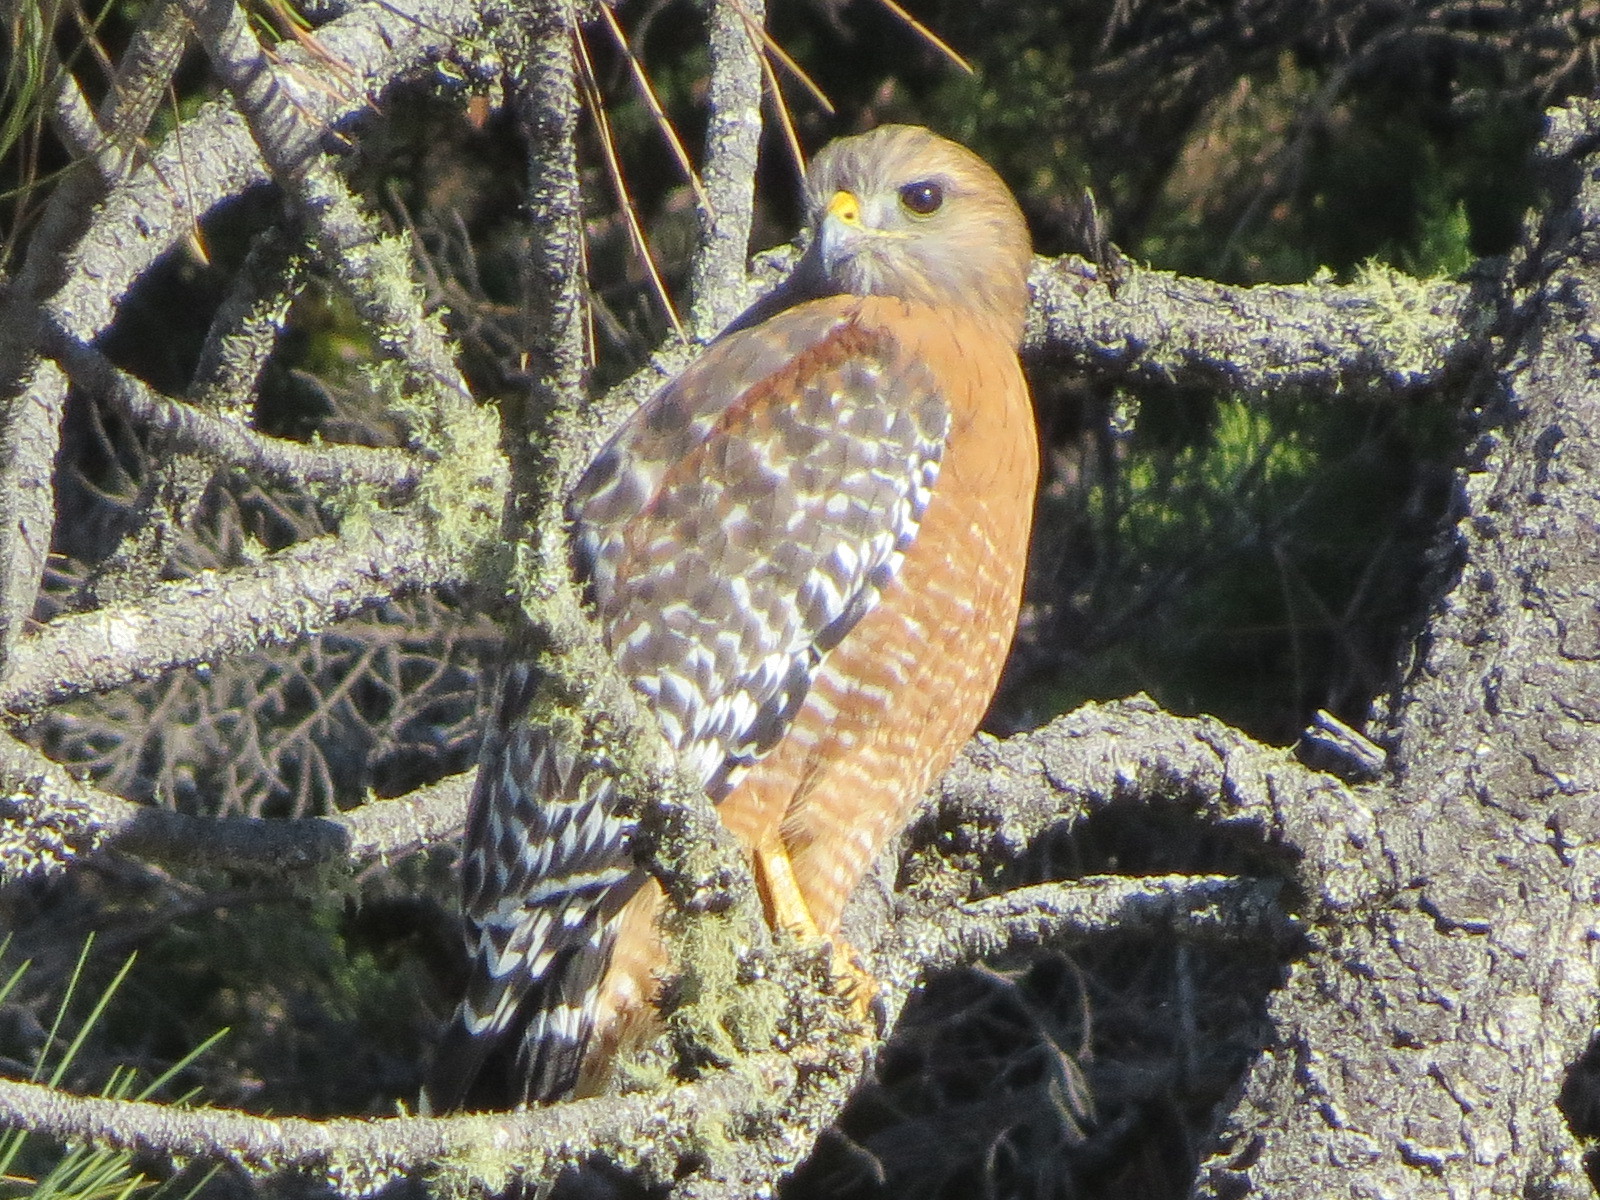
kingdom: Animalia
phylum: Chordata
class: Aves
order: Accipitriformes
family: Accipitridae
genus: Buteo
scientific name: Buteo lineatus
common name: Red-shouldered hawk
